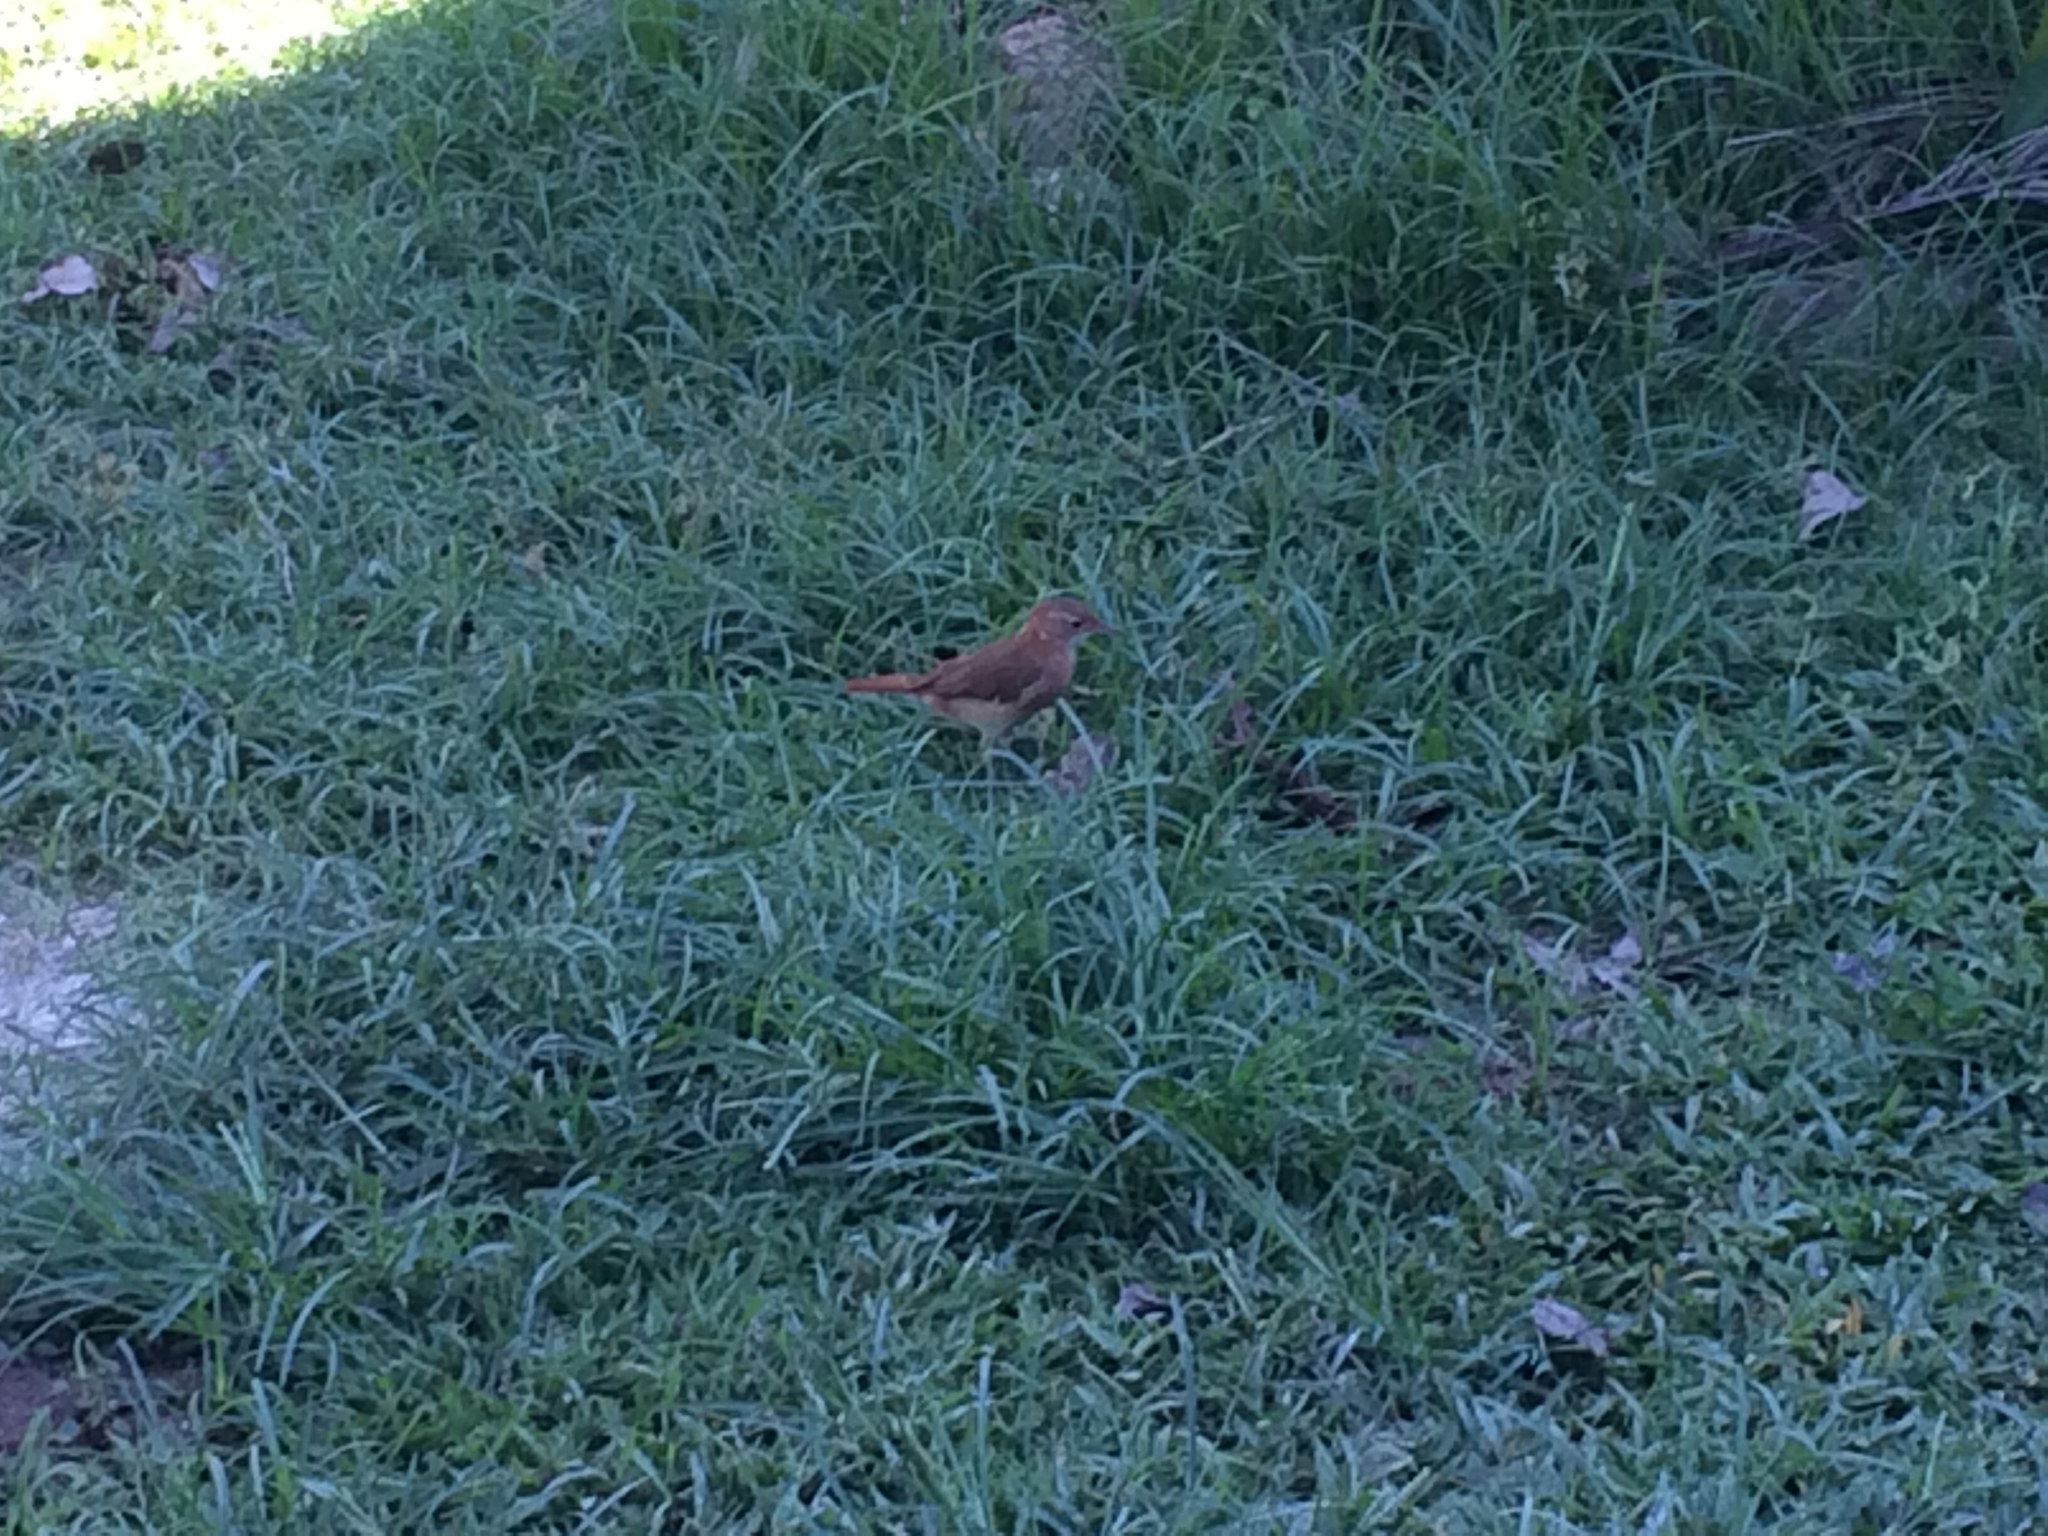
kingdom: Animalia
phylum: Chordata
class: Aves
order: Passeriformes
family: Furnariidae
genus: Furnarius
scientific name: Furnarius rufus
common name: Rufous hornero
